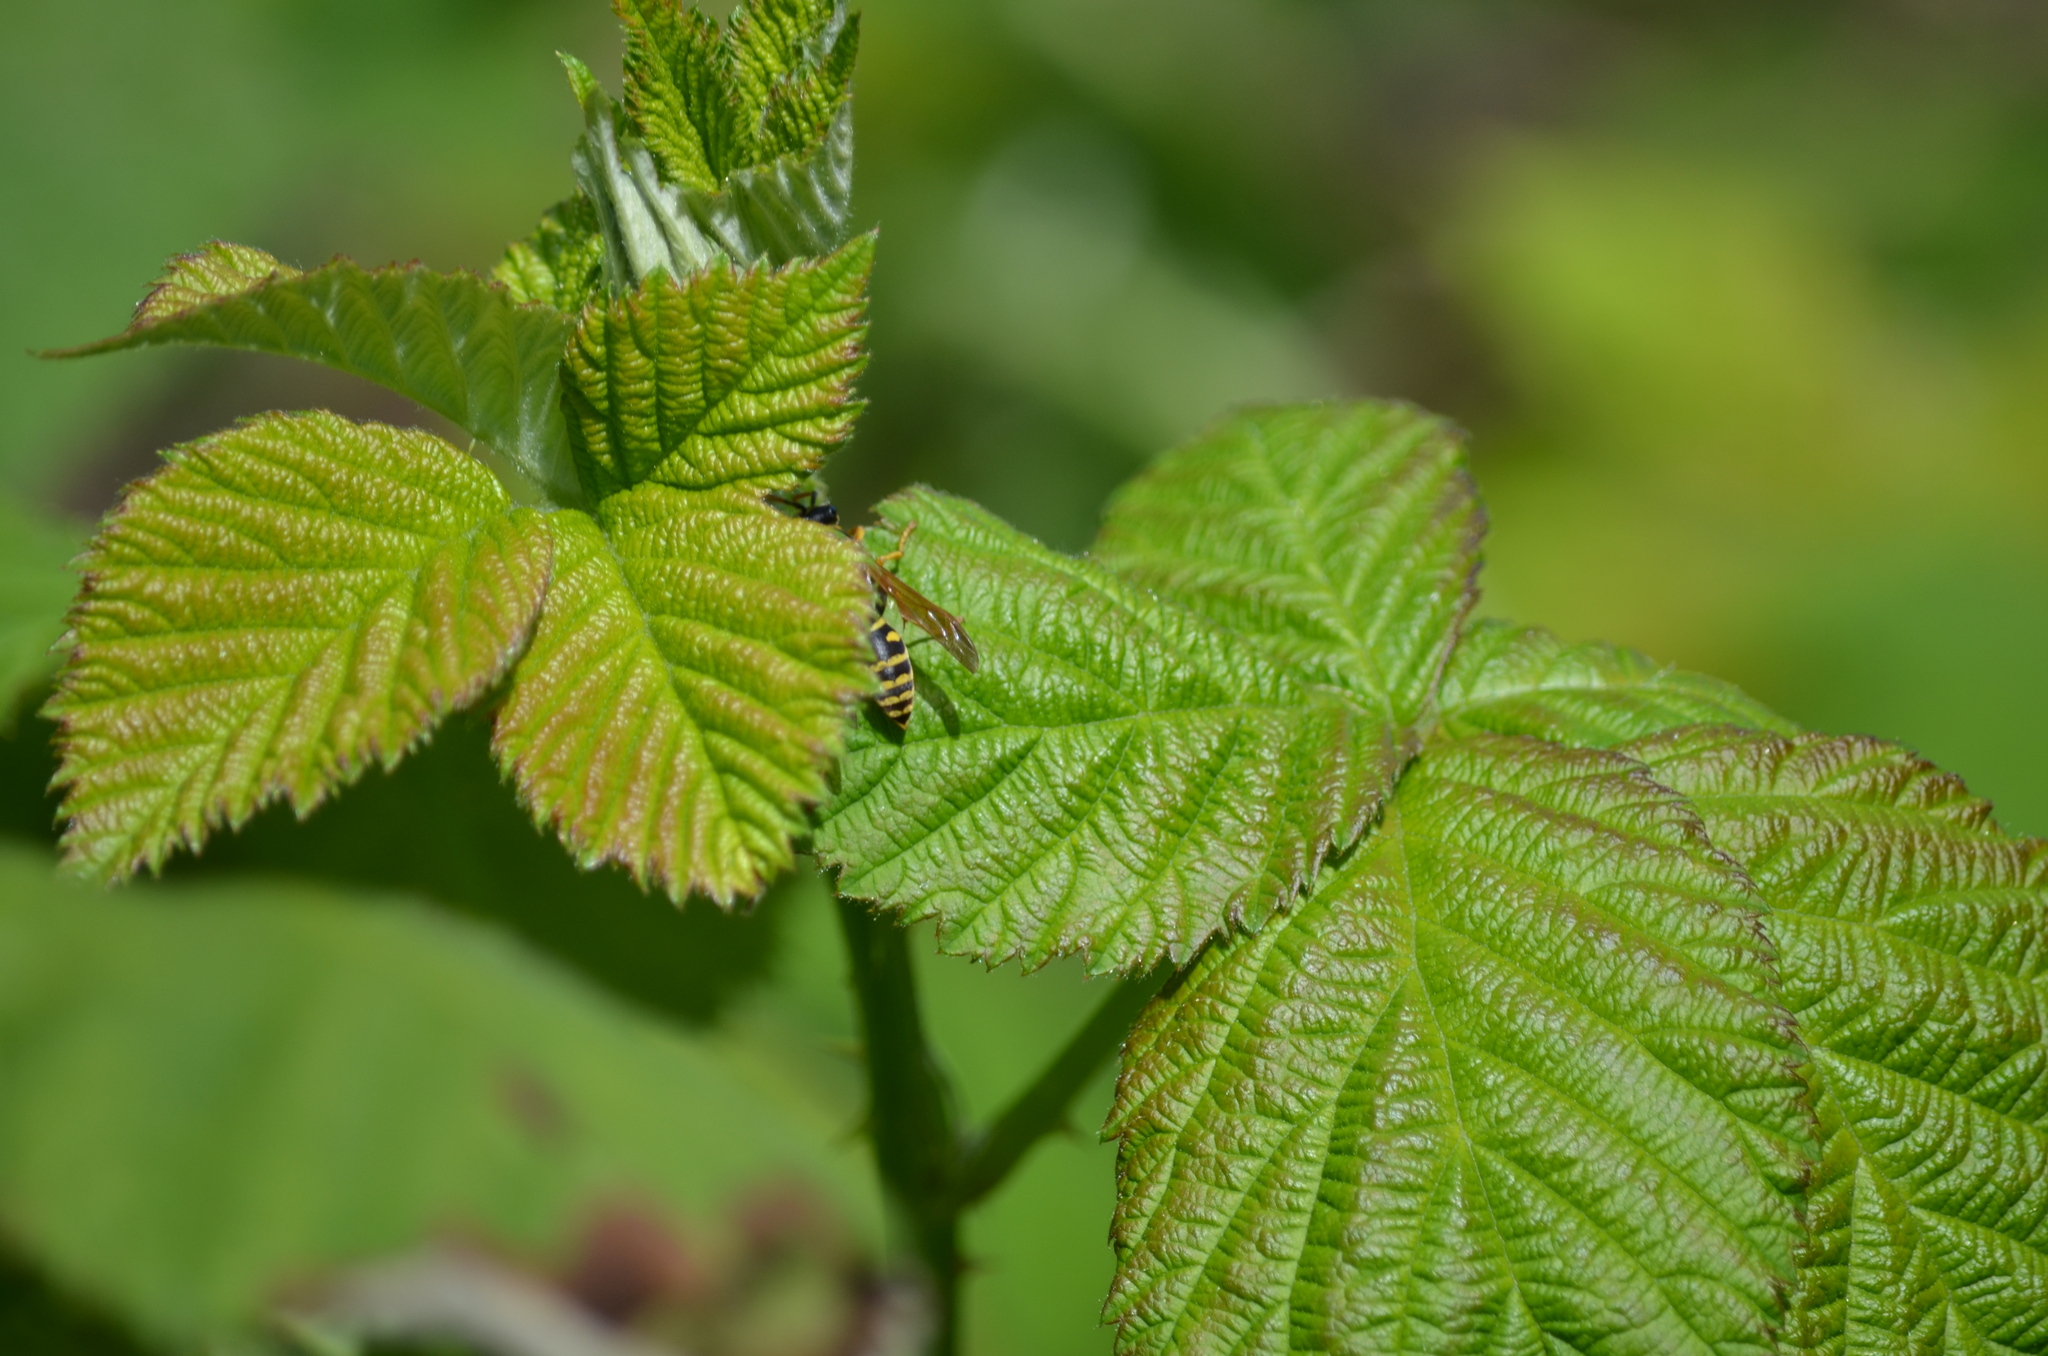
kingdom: Animalia
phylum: Arthropoda
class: Insecta
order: Hymenoptera
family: Eumenidae
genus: Polistes
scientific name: Polistes dominula
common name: Paper wasp
